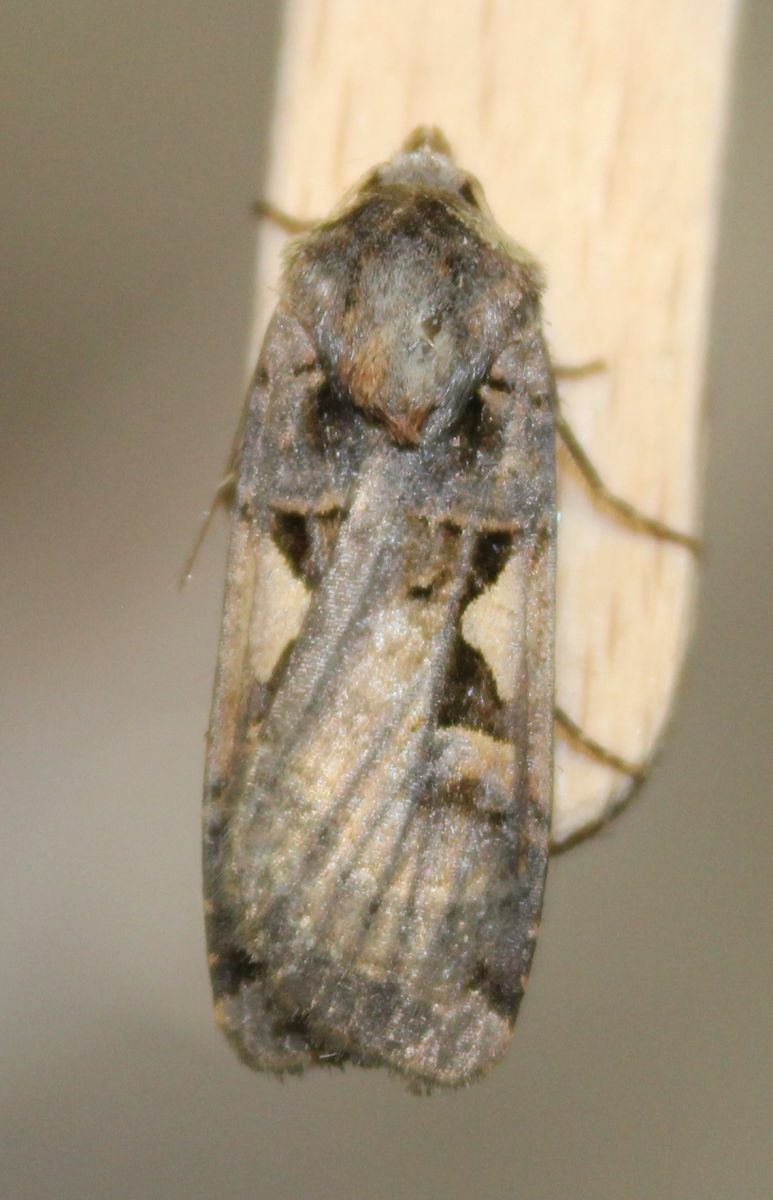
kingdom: Animalia
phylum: Arthropoda
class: Insecta
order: Lepidoptera
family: Noctuidae
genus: Xestia
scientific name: Xestia c-nigrum
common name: Setaceous hebrew character
